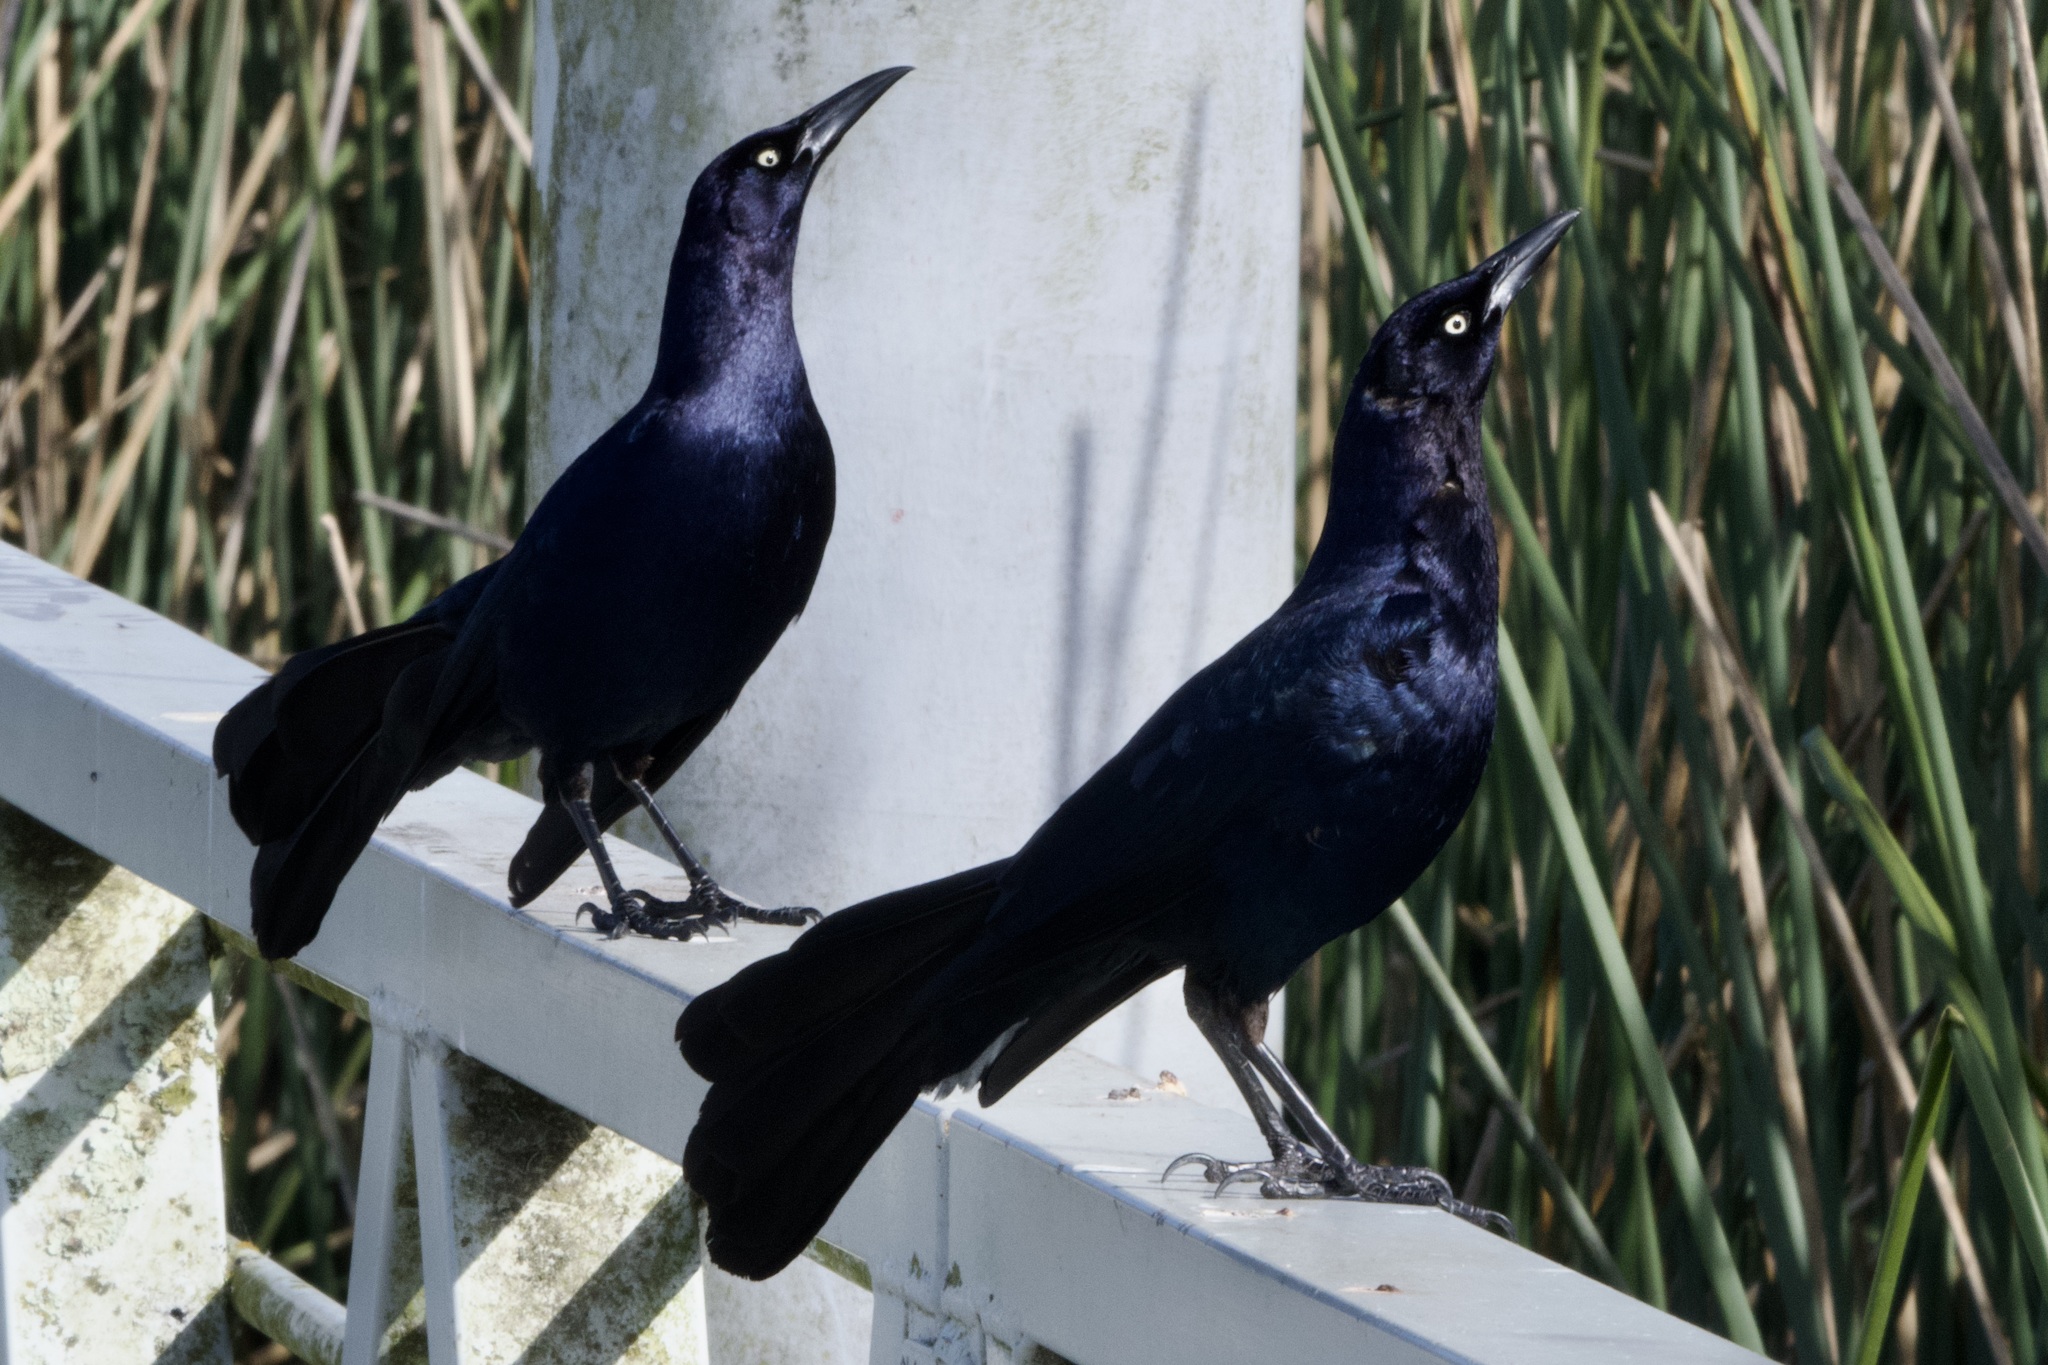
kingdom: Animalia
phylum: Chordata
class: Aves
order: Passeriformes
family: Icteridae
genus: Quiscalus
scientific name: Quiscalus mexicanus
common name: Great-tailed grackle
